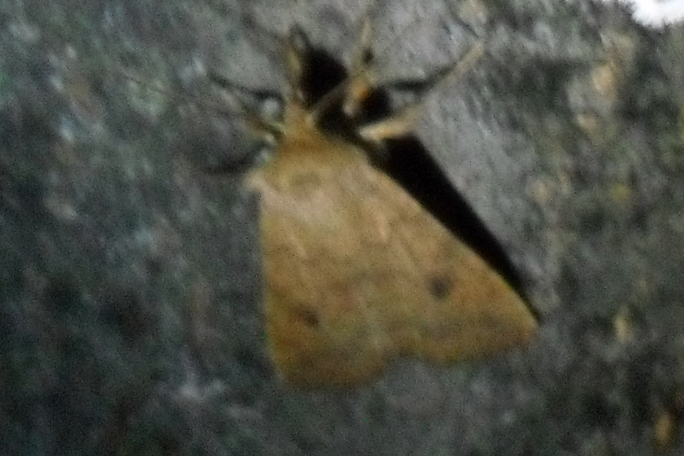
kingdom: Animalia
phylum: Arthropoda
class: Insecta
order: Lepidoptera
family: Noctuidae
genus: Sunira
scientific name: Sunira circellaris
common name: Brick
